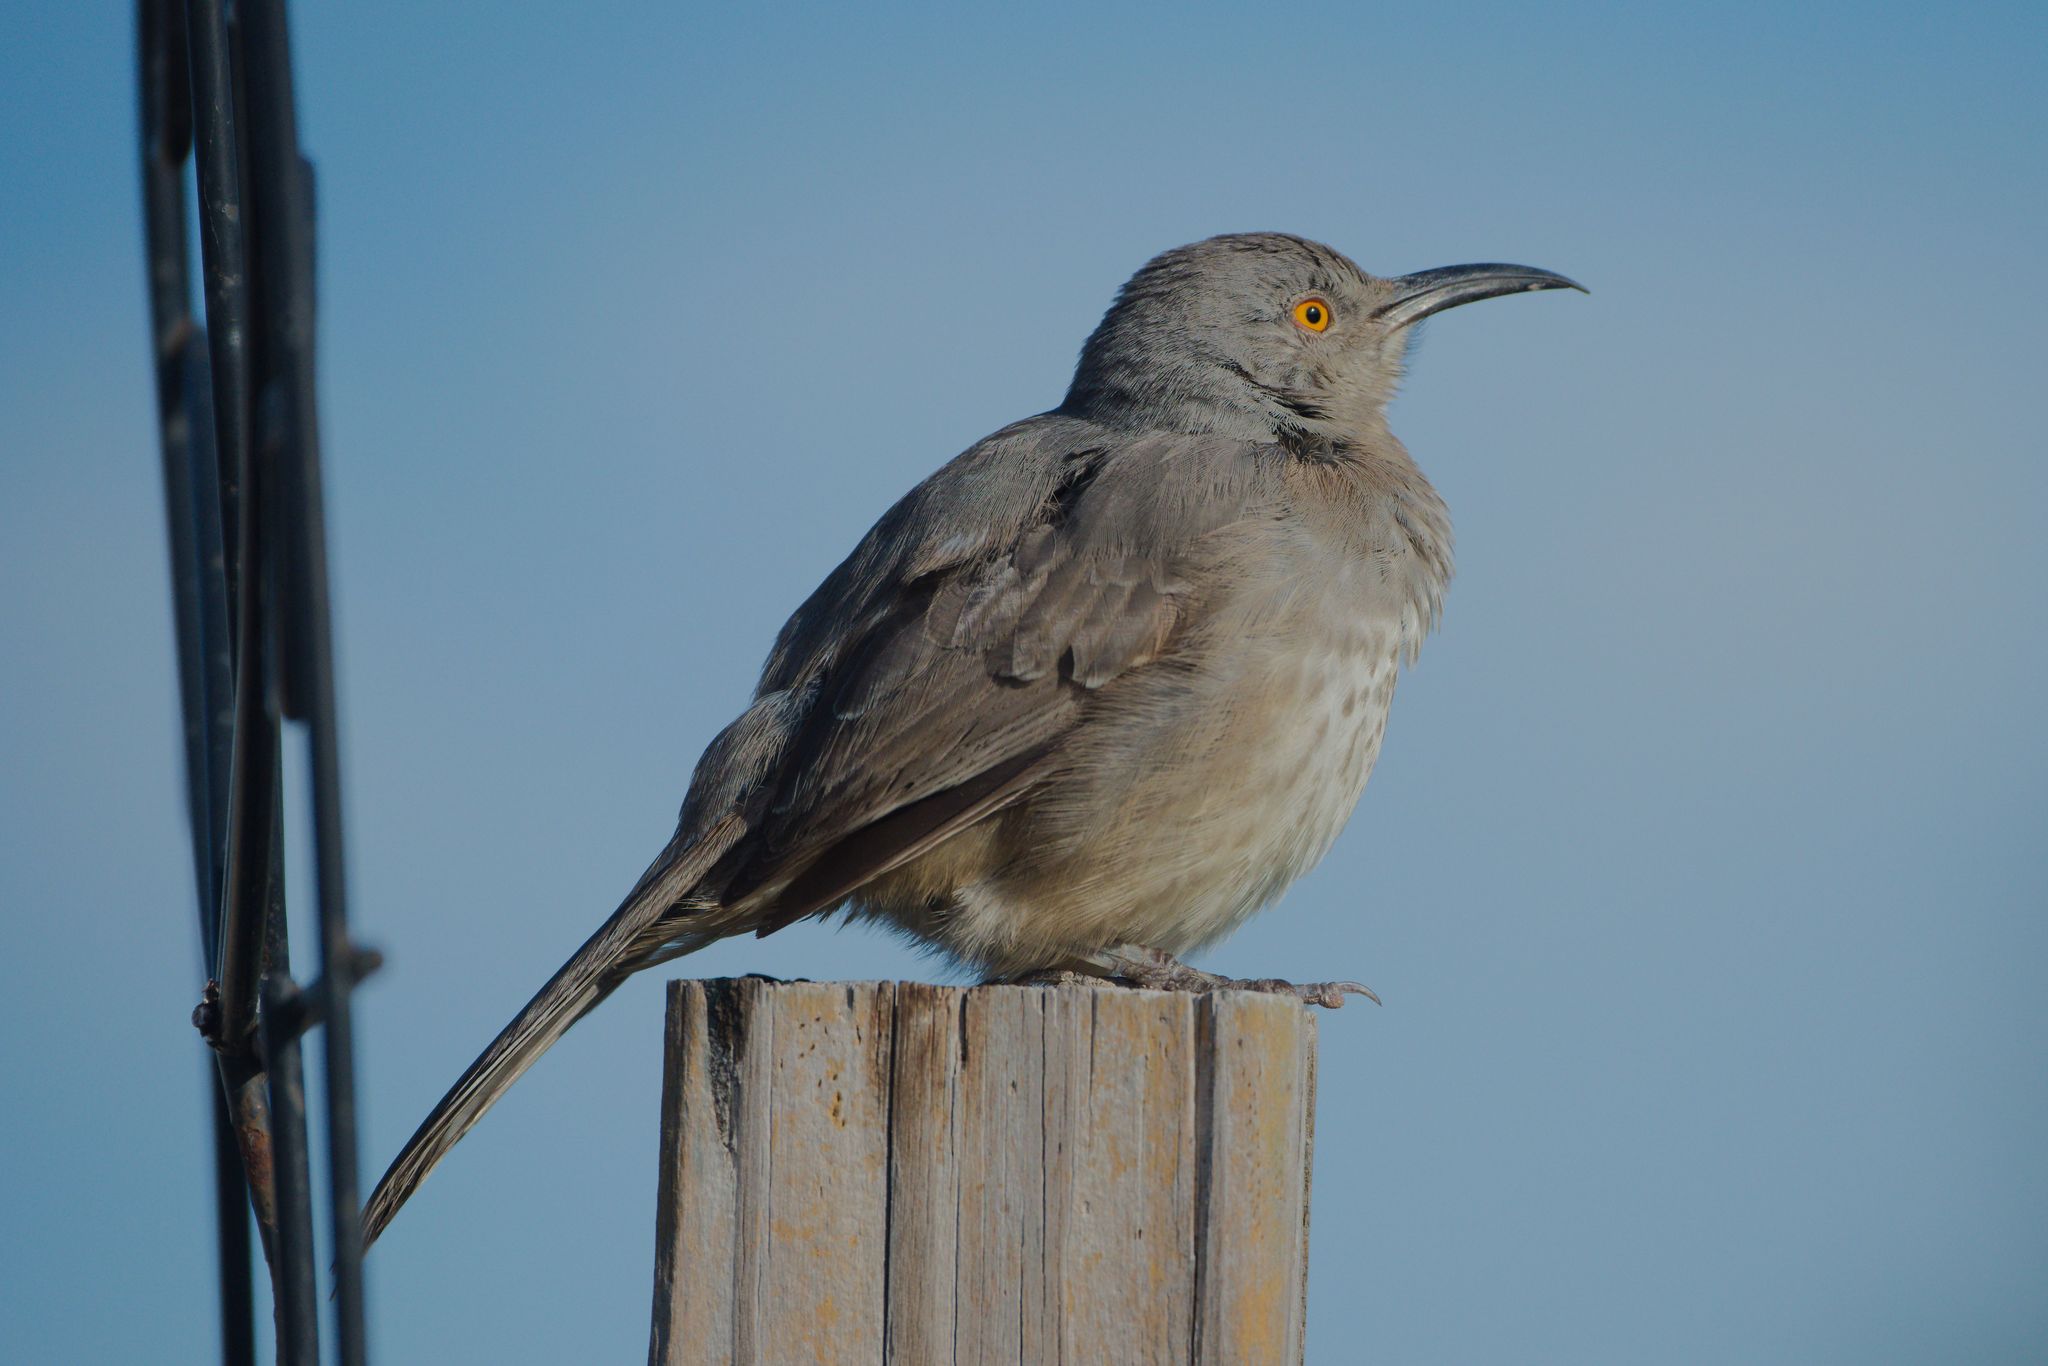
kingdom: Animalia
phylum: Chordata
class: Aves
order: Passeriformes
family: Mimidae
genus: Toxostoma
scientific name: Toxostoma curvirostre
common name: Curve-billed thrasher
